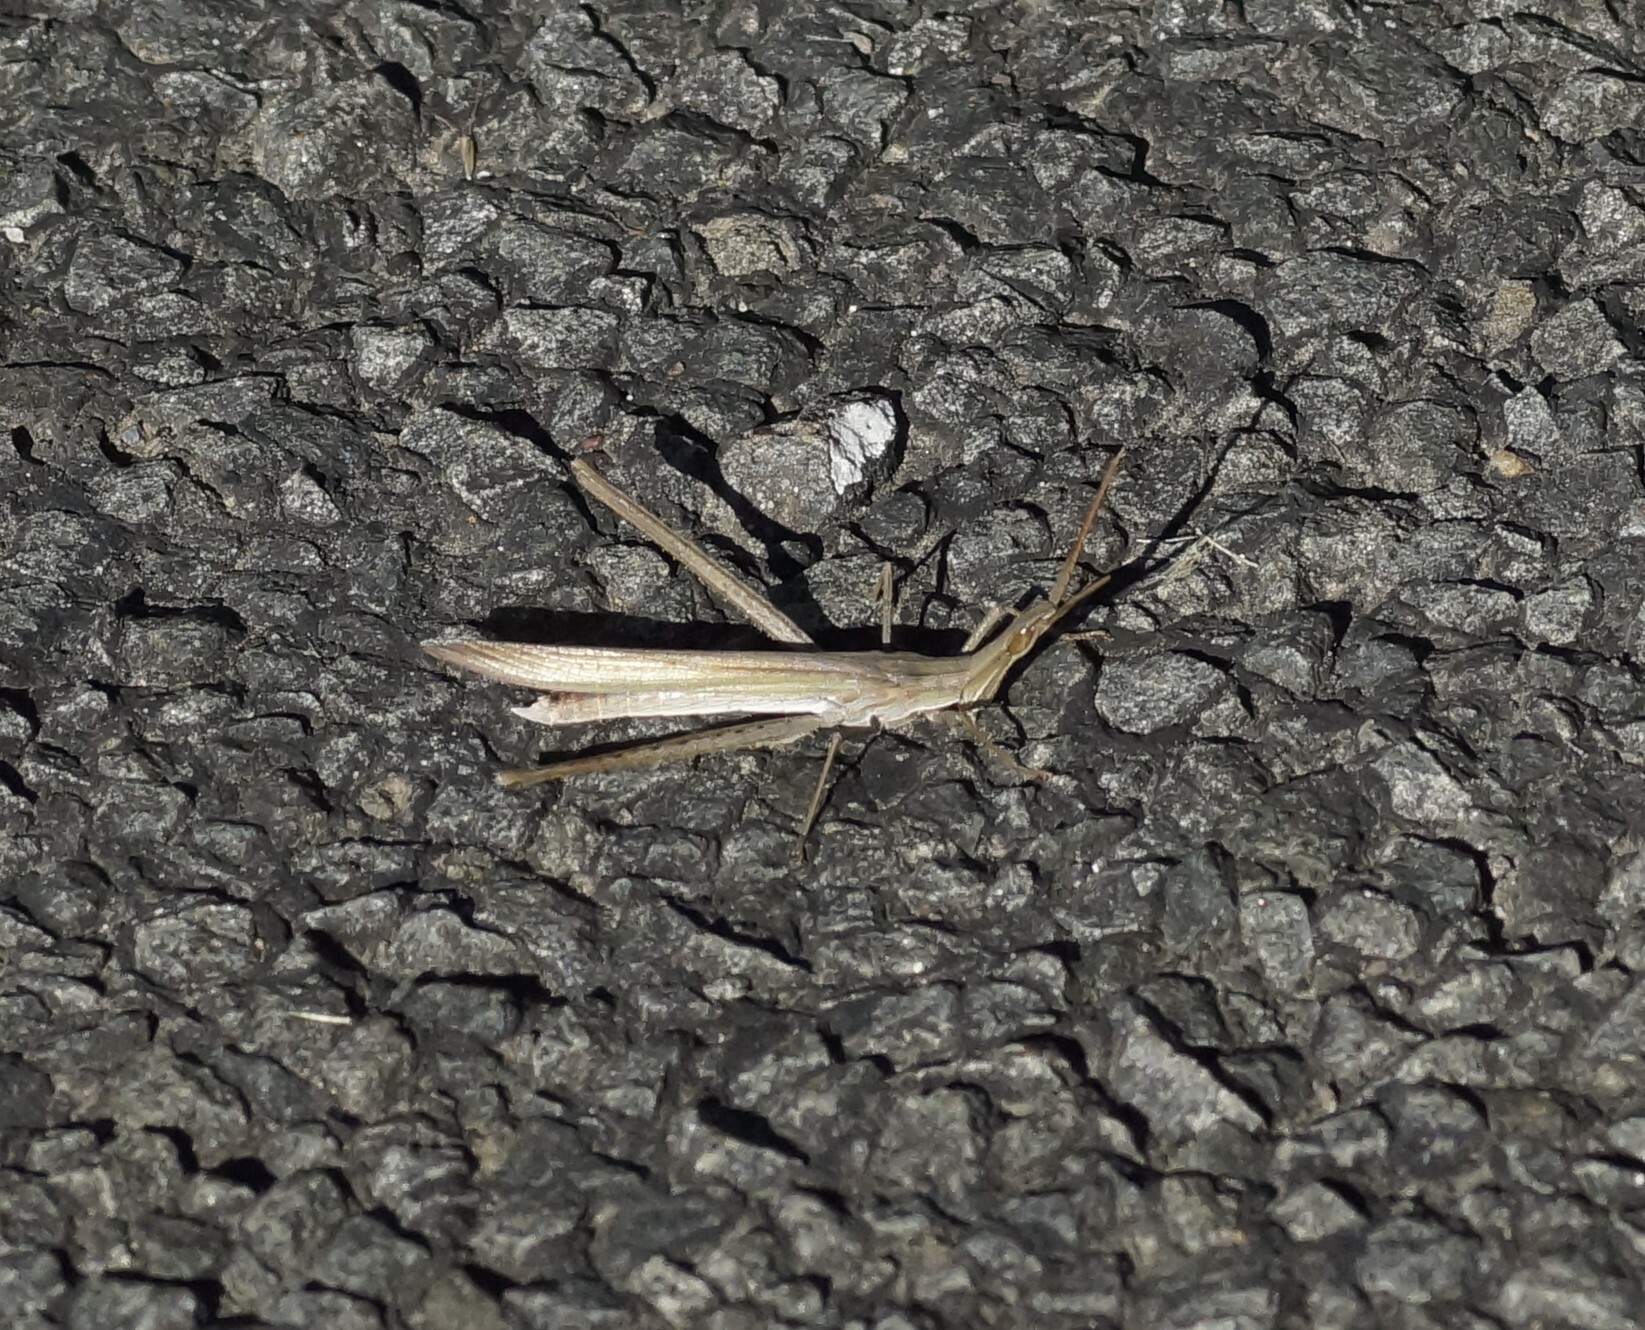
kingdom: Animalia
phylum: Arthropoda
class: Insecta
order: Orthoptera
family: Acrididae
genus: Acrida
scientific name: Acrida conica
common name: Giant green slantface
